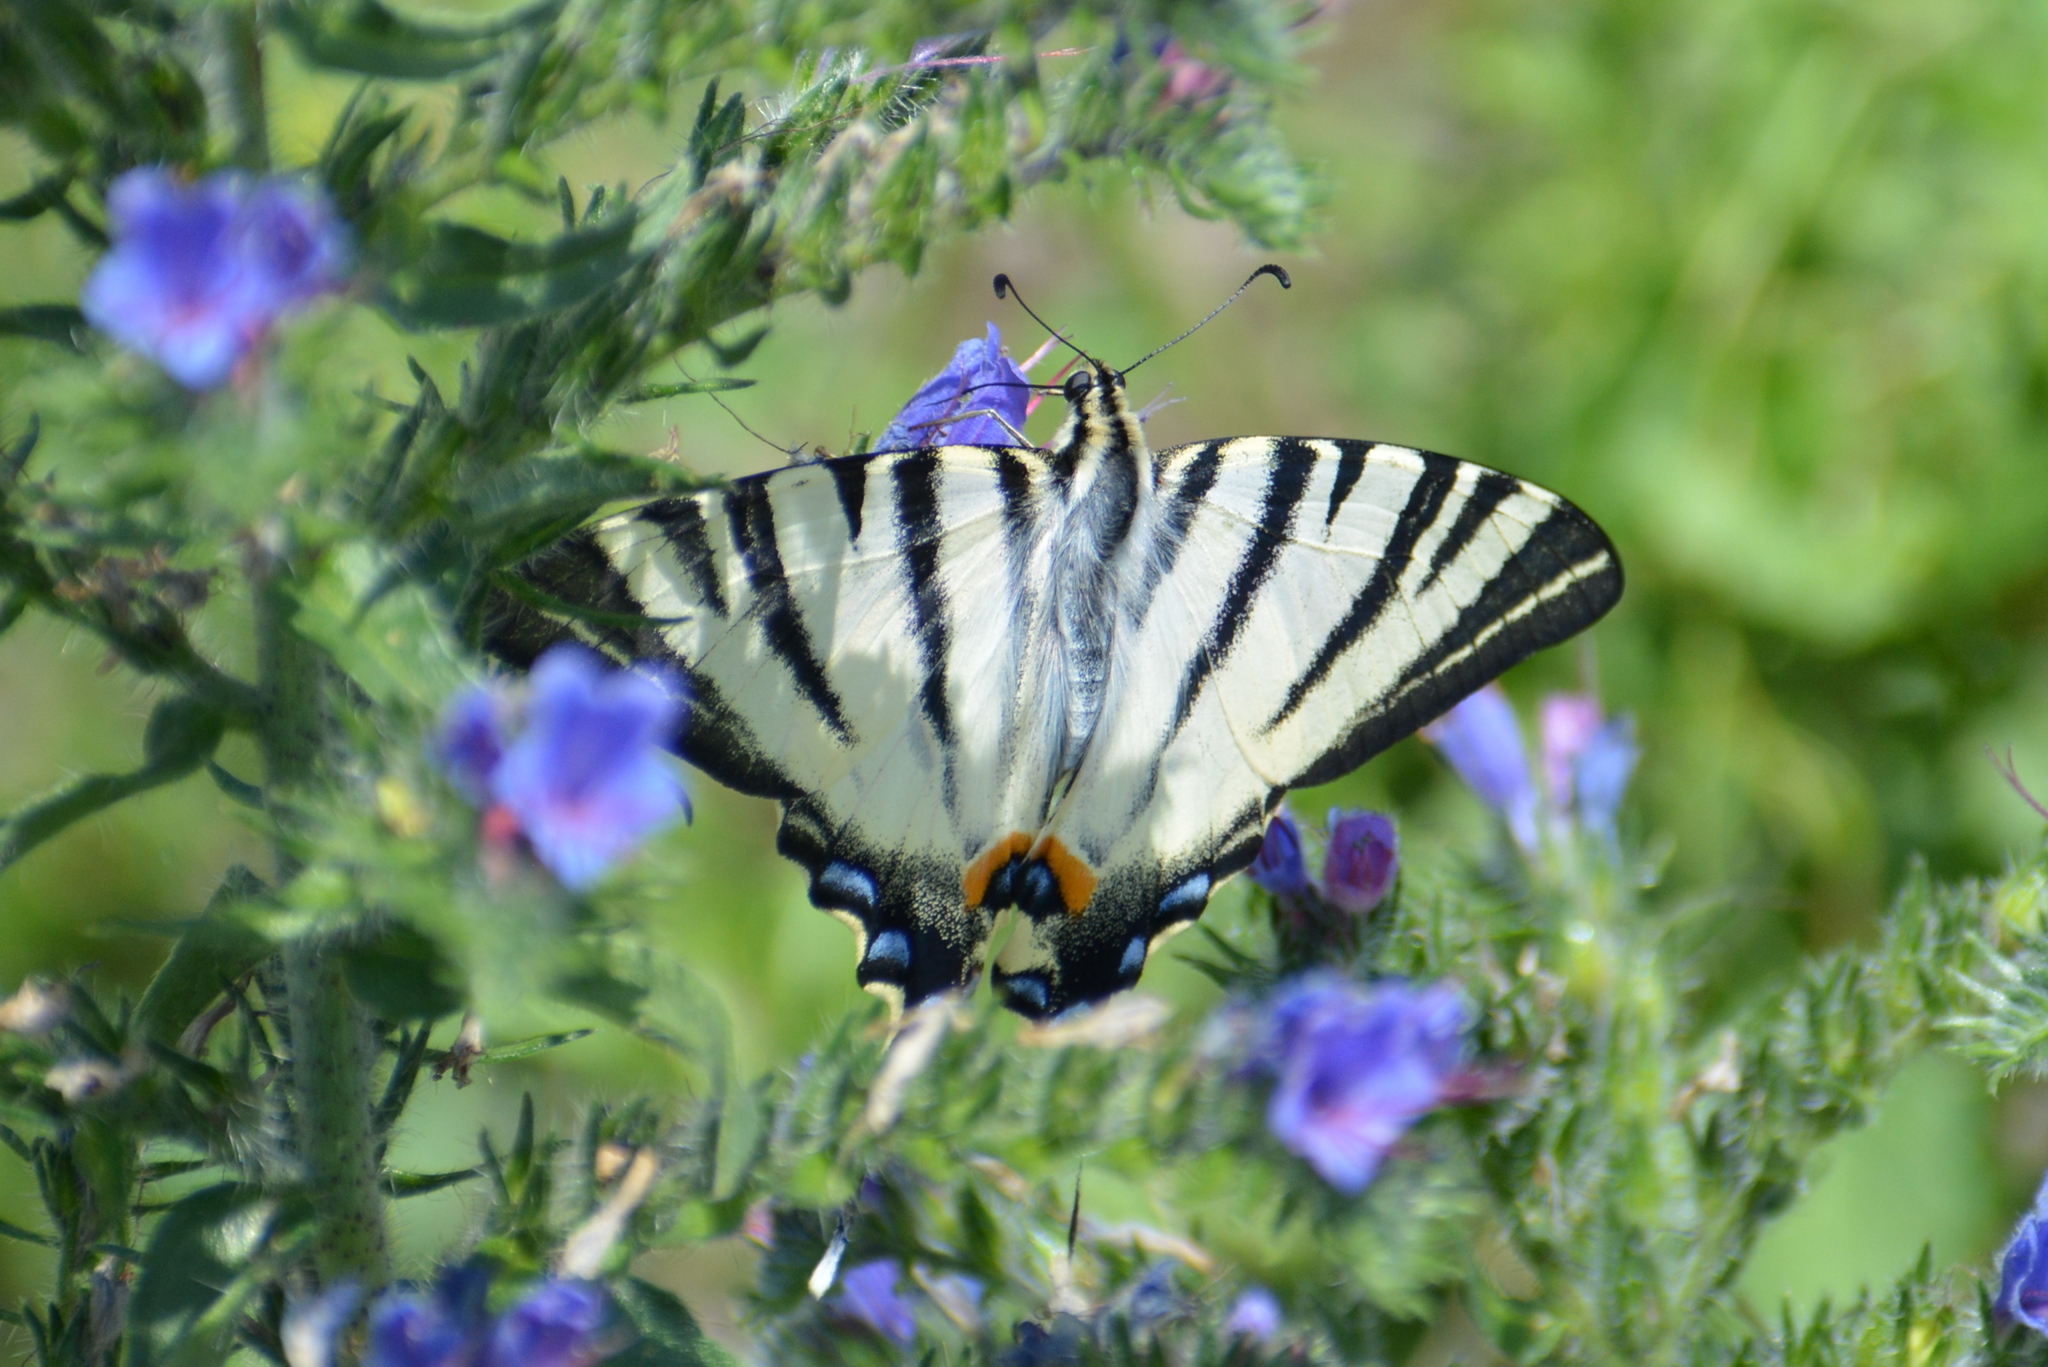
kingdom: Animalia
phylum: Arthropoda
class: Insecta
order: Lepidoptera
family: Papilionidae
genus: Iphiclides
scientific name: Iphiclides podalirius
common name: Scarce swallowtail
